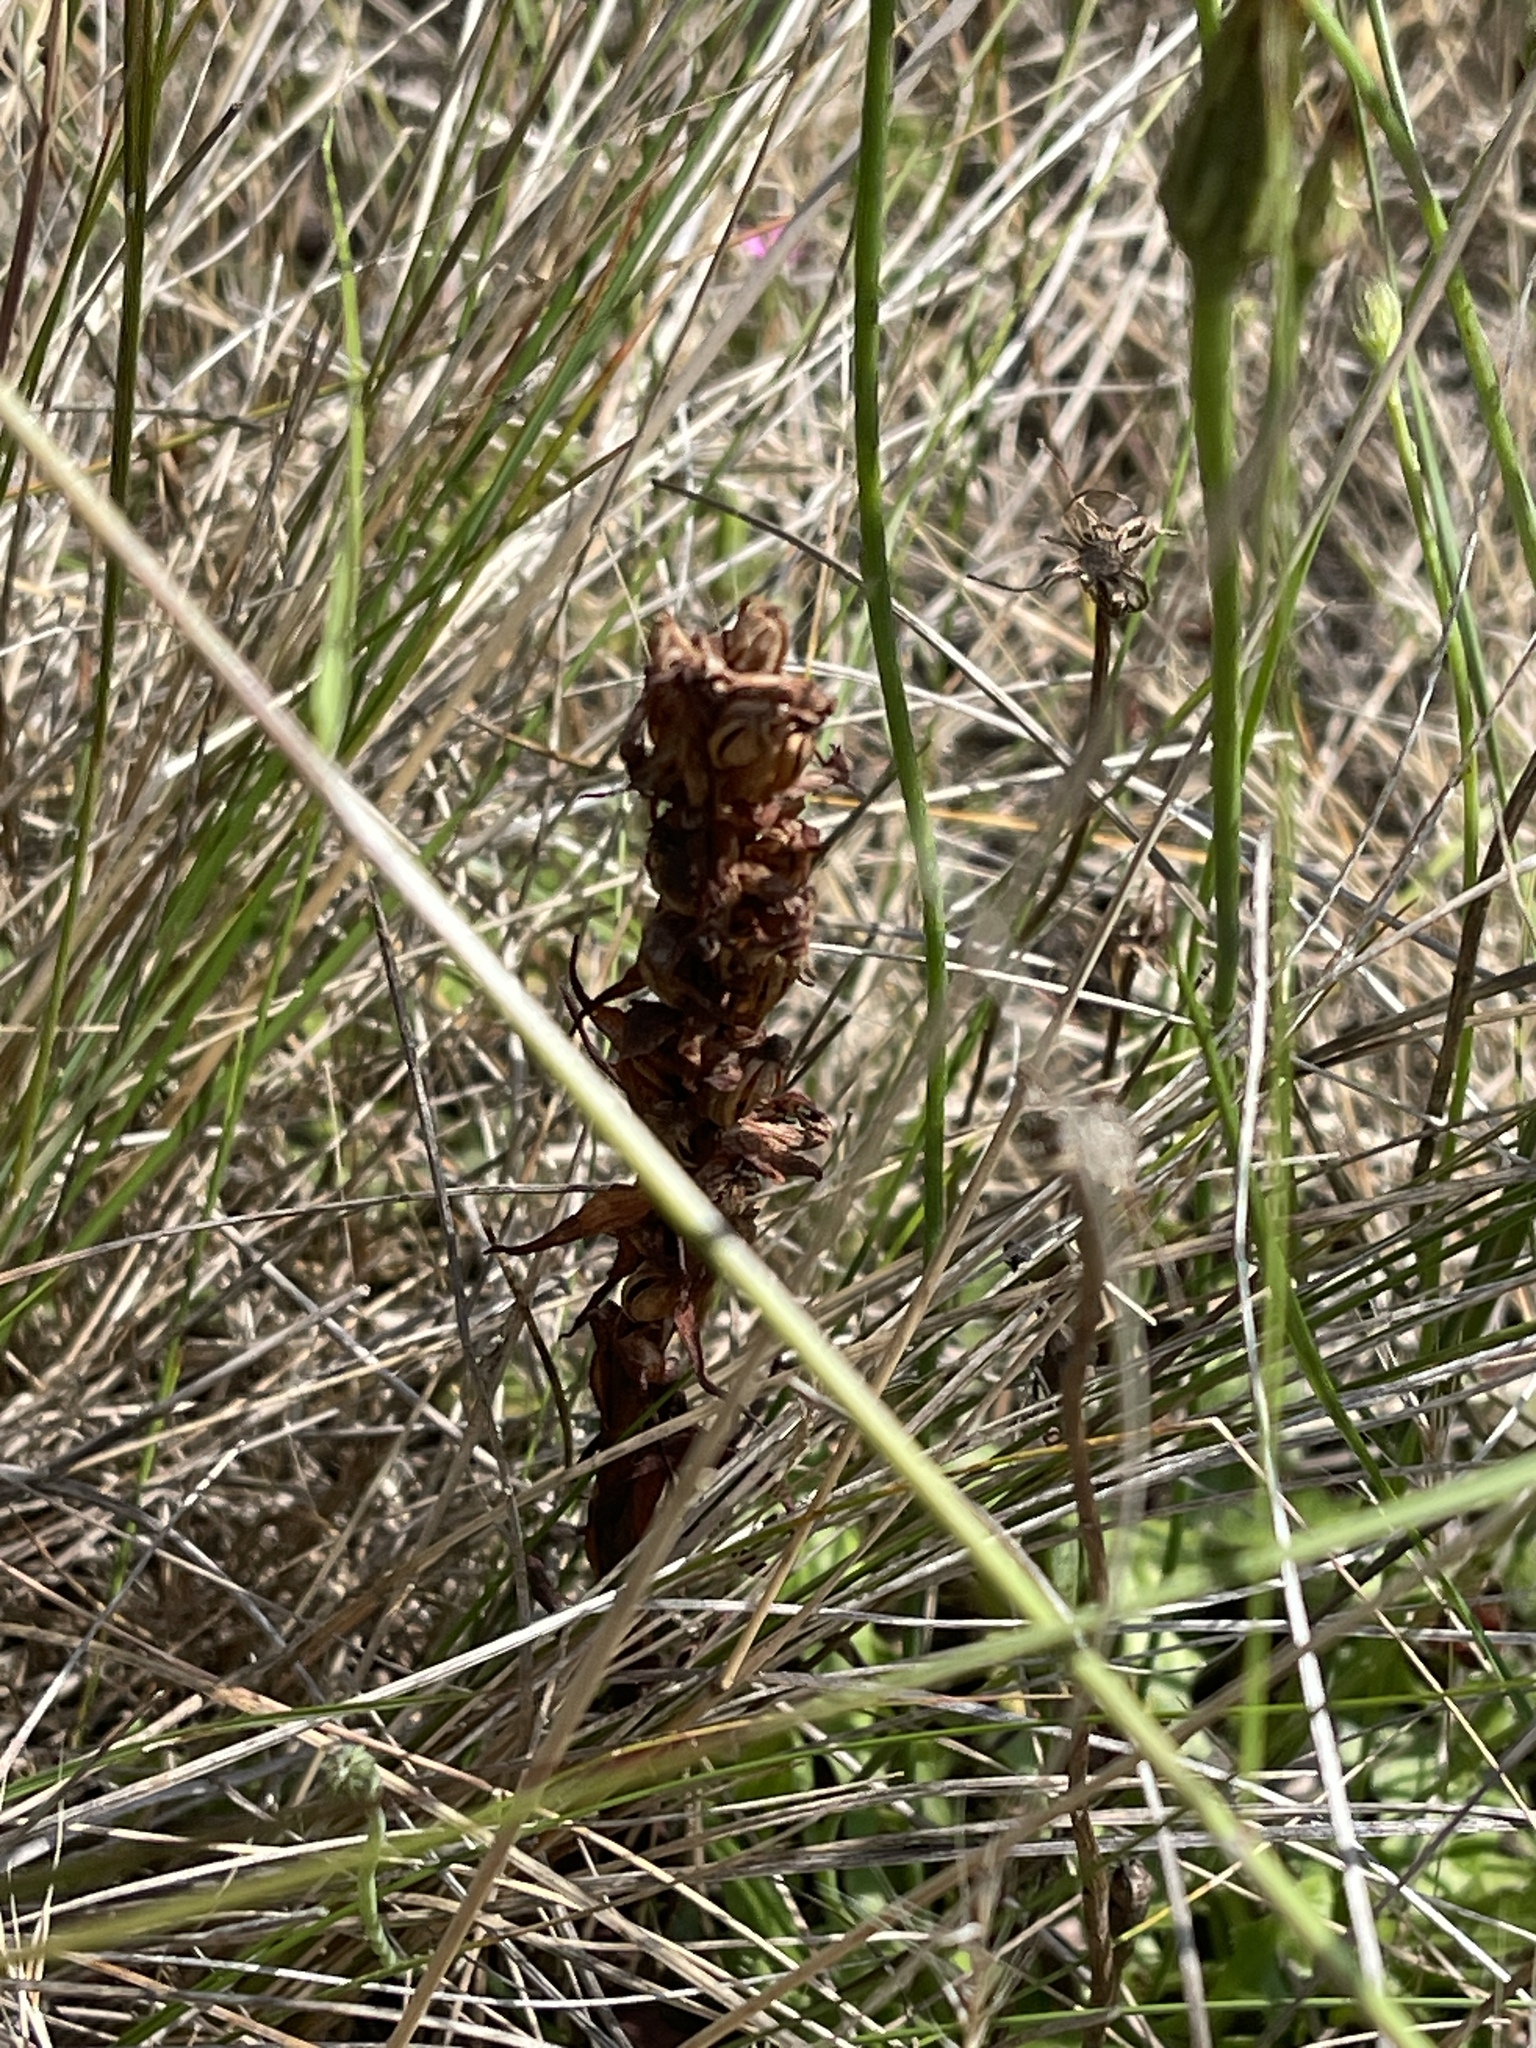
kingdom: Plantae
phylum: Tracheophyta
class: Liliopsida
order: Asparagales
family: Orchidaceae
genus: Disa
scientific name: Disa bracteata
